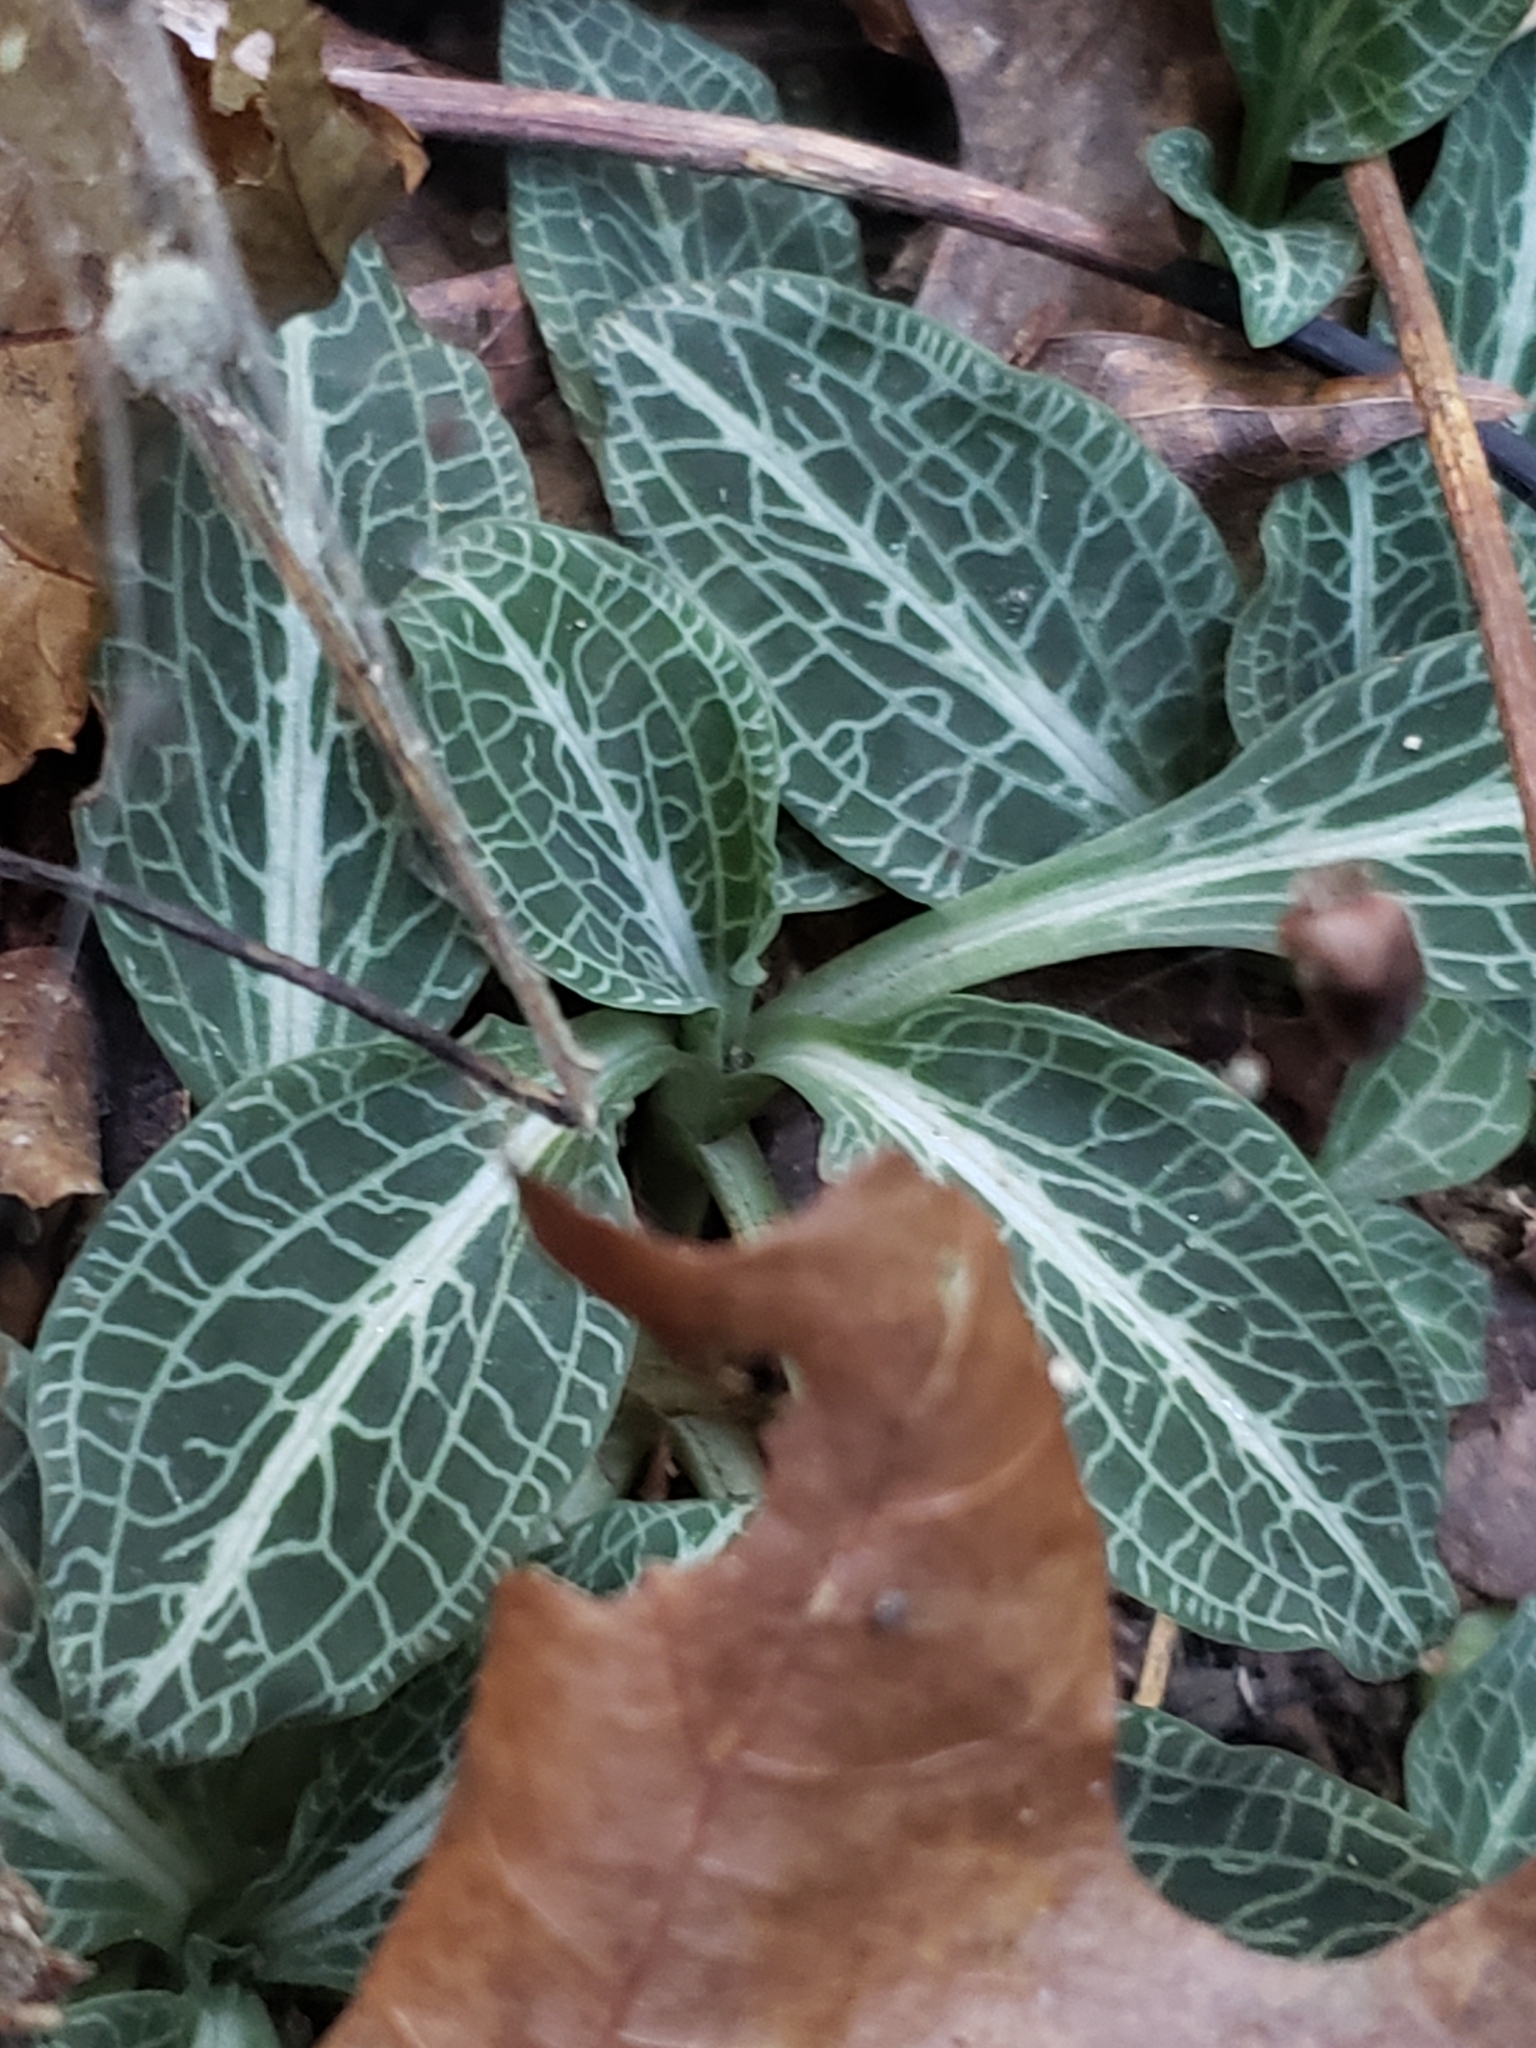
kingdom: Plantae
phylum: Tracheophyta
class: Liliopsida
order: Asparagales
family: Orchidaceae
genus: Goodyera
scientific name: Goodyera pubescens
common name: Downy rattlesnake-plantain
